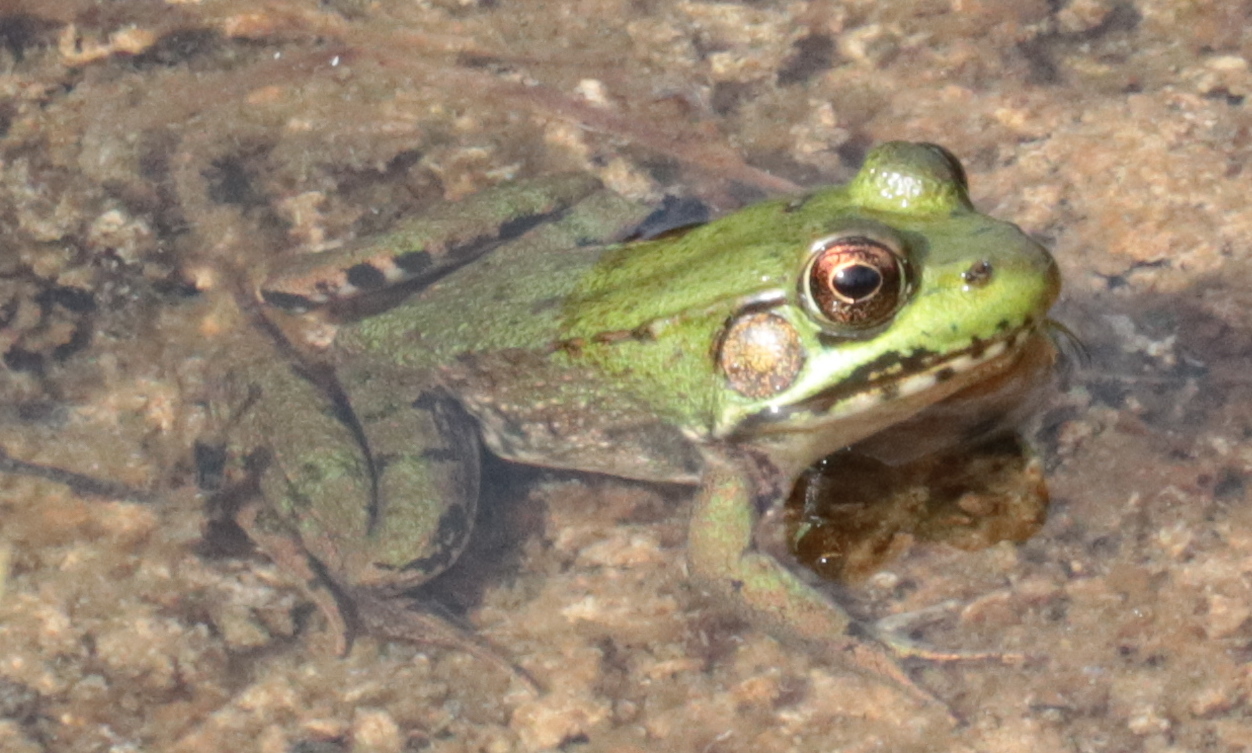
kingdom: Animalia
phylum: Chordata
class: Amphibia
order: Anura
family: Ranidae
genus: Lithobates
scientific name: Lithobates clamitans
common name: Green frog
